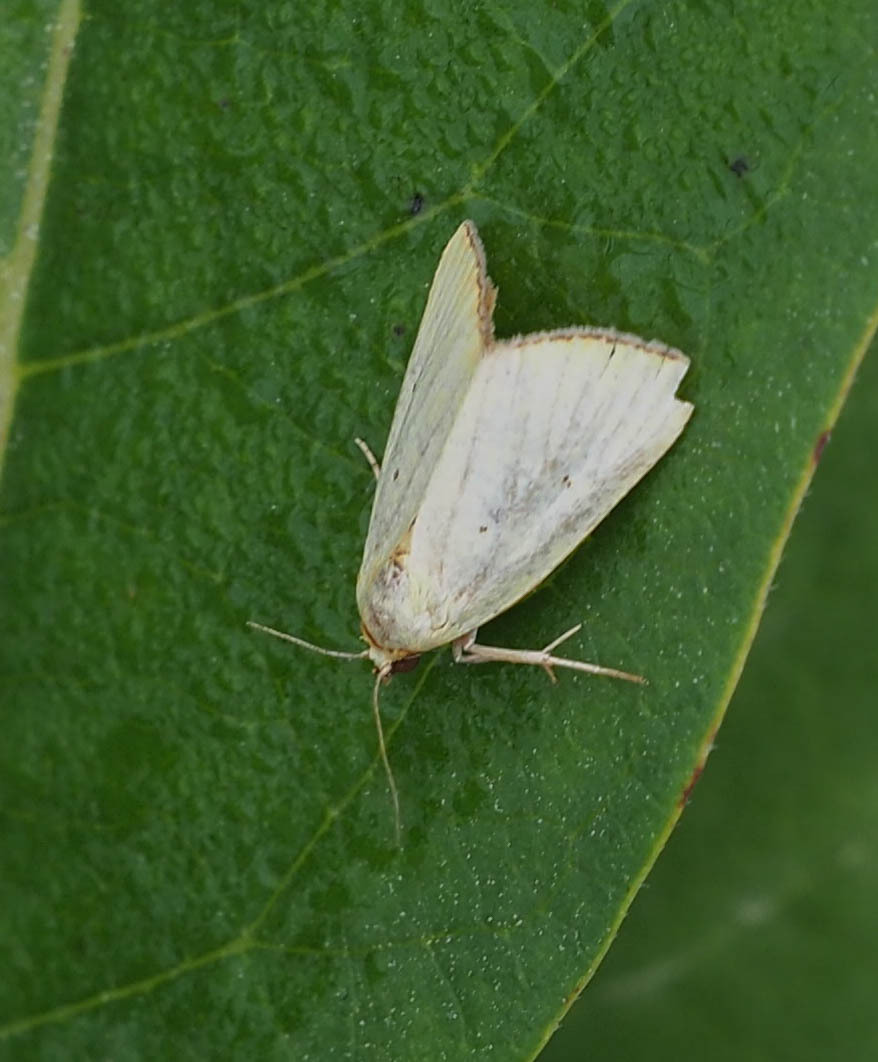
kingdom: Animalia
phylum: Arthropoda
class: Insecta
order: Lepidoptera
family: Noctuidae
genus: Marimatha
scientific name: Marimatha nigrofimbria
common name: Black-bordered lemon moth
